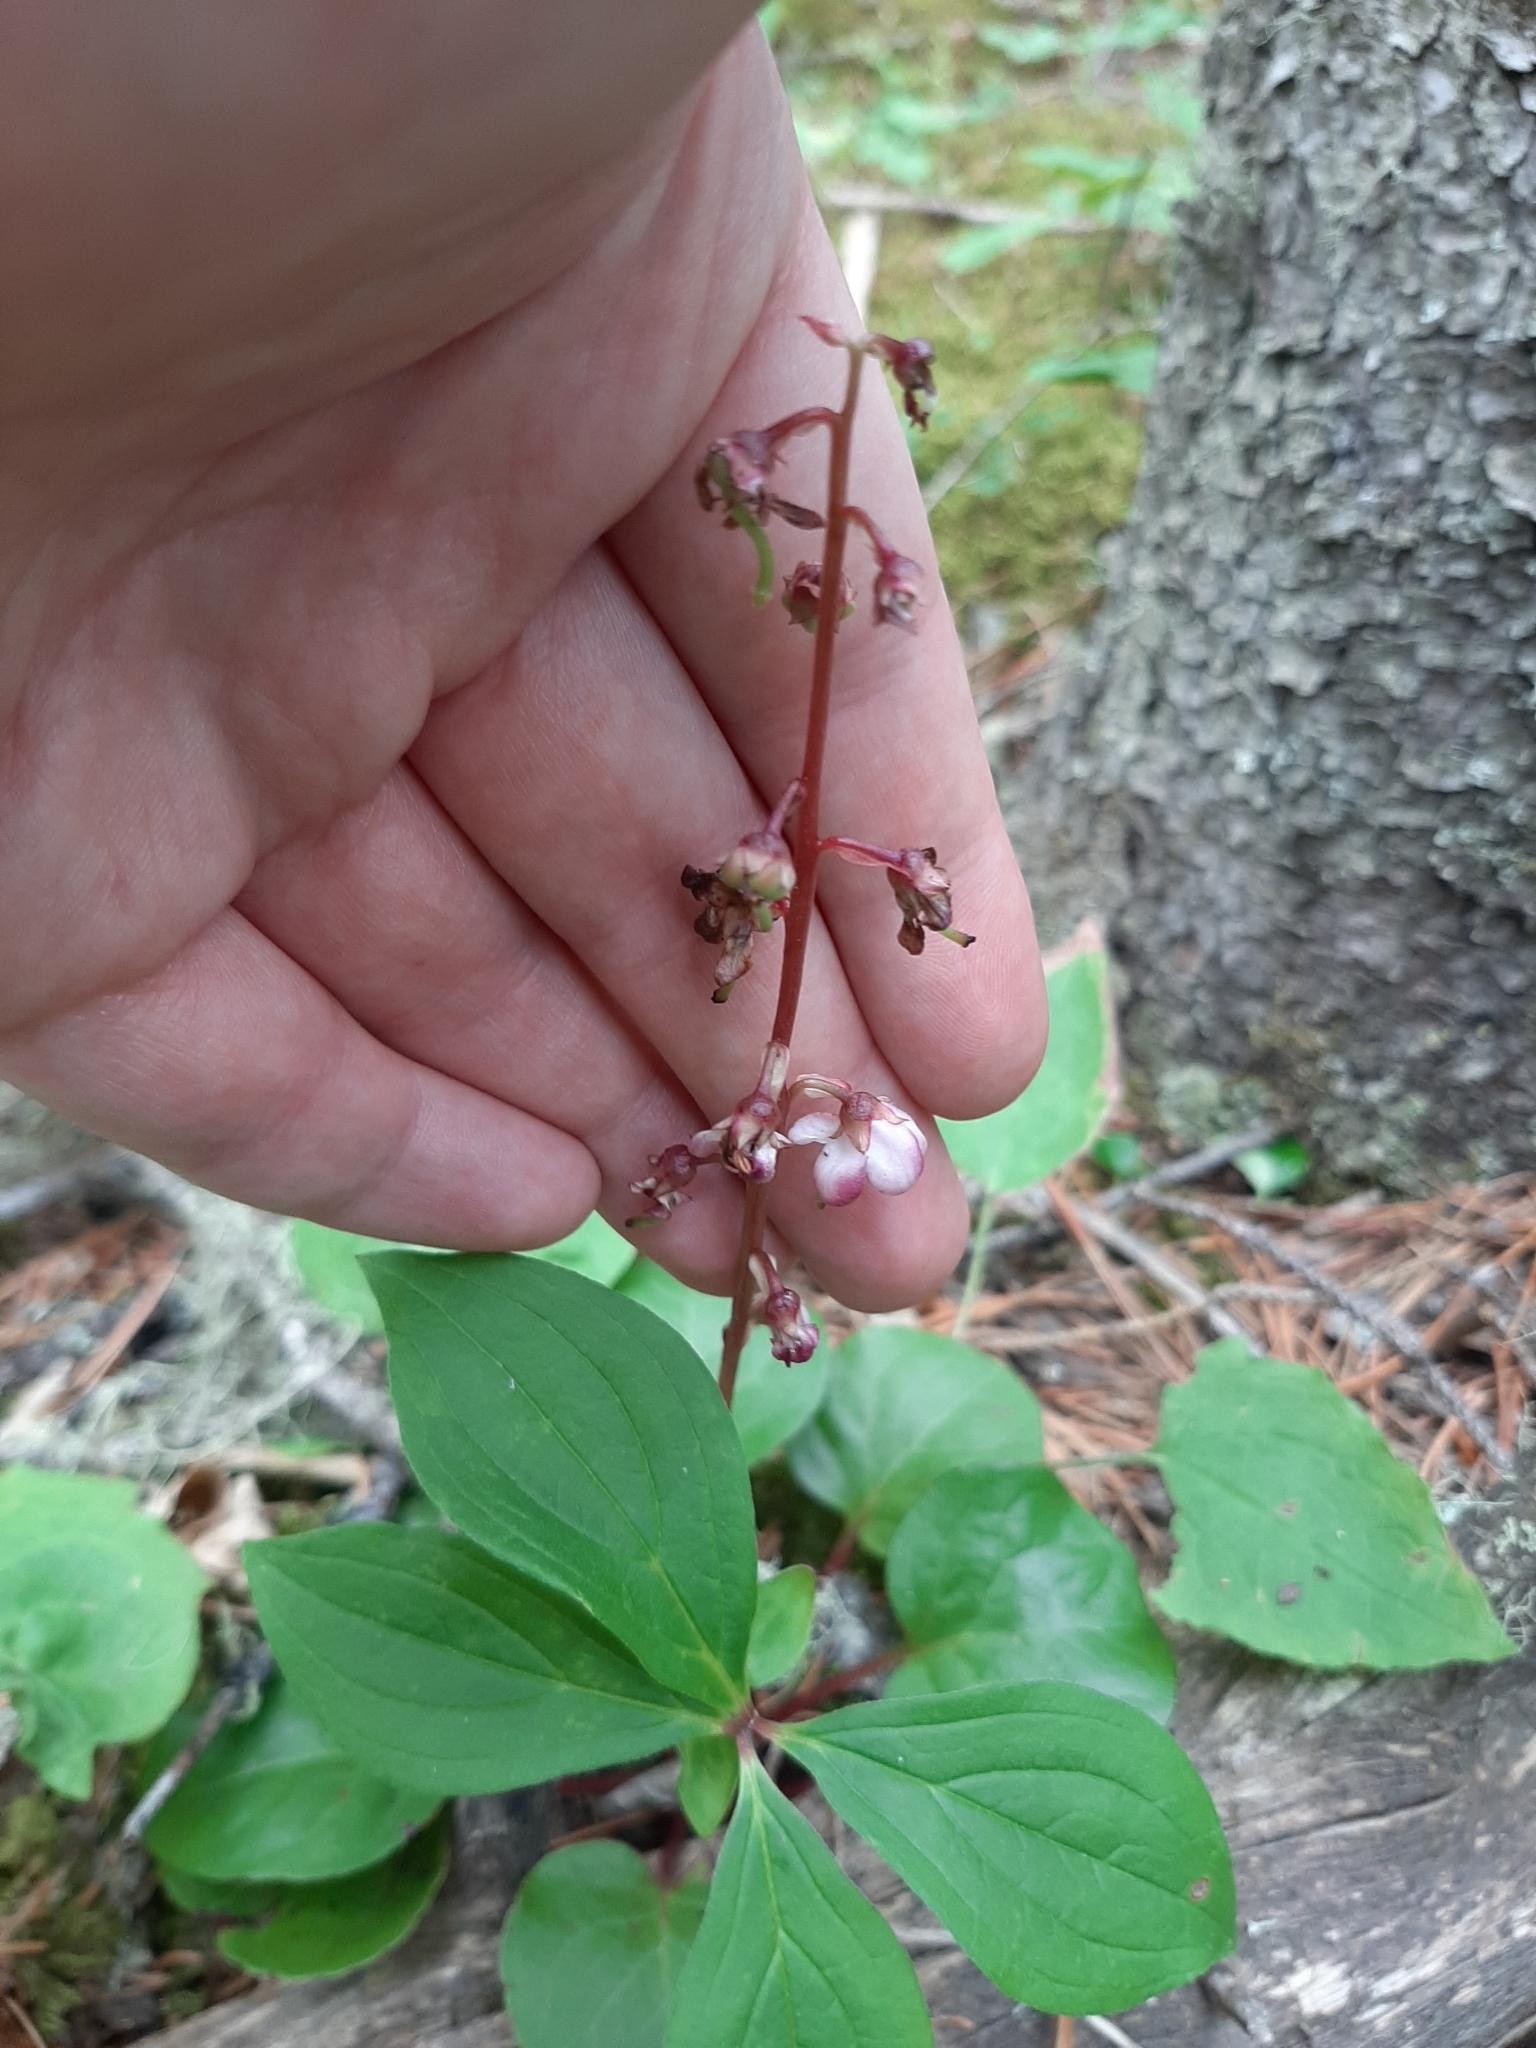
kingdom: Plantae
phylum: Tracheophyta
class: Magnoliopsida
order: Ericales
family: Ericaceae
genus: Pyrola
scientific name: Pyrola asarifolia
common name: Bog wintergreen
